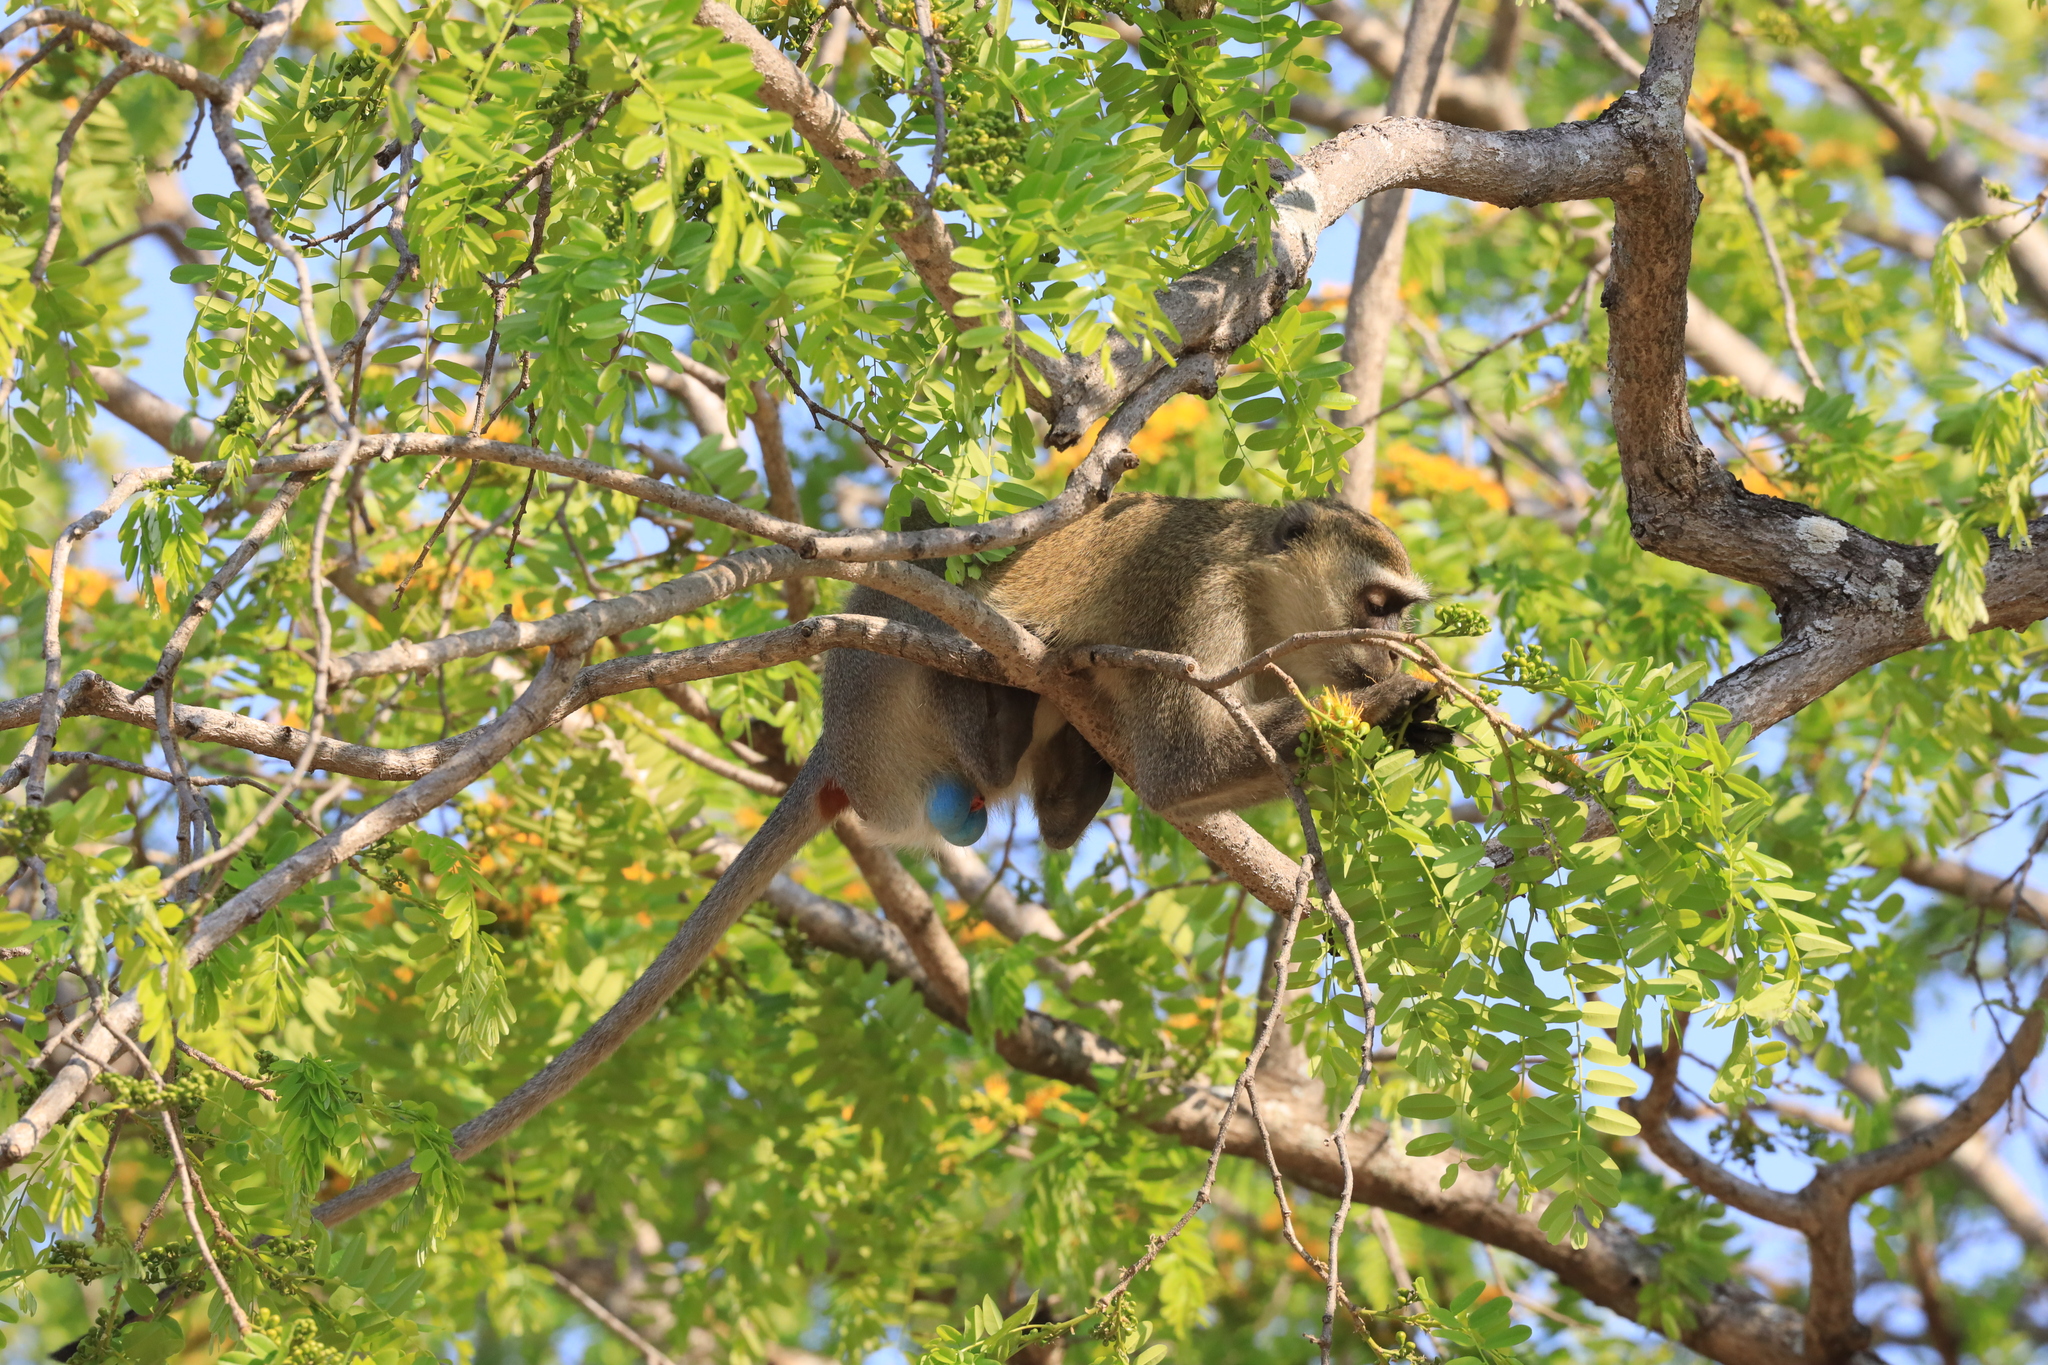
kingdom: Animalia
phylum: Chordata
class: Mammalia
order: Primates
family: Cercopithecidae
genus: Chlorocebus
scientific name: Chlorocebus pygerythrus
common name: Vervet monkey
